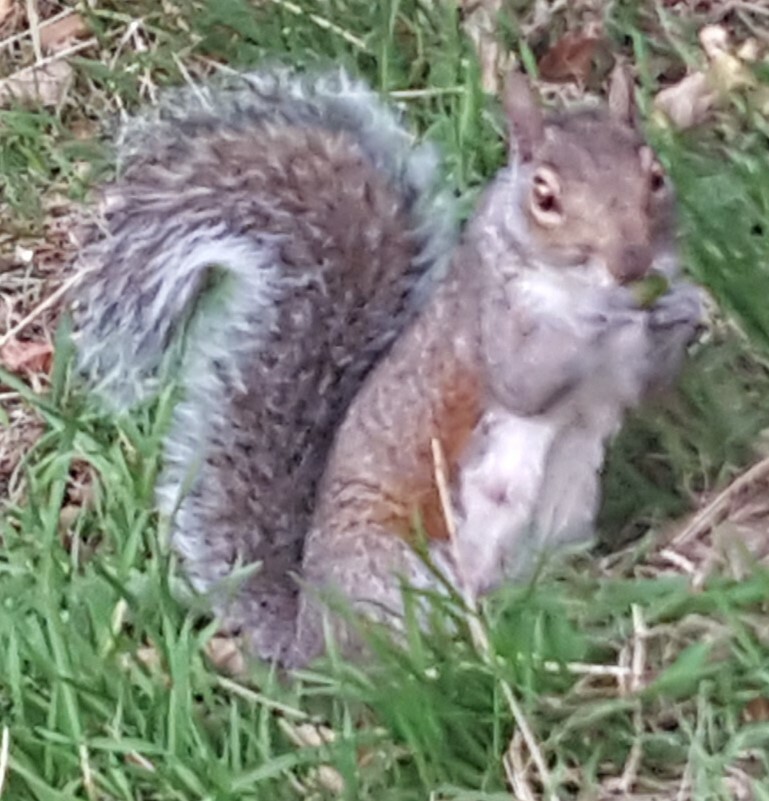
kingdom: Animalia
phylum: Chordata
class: Mammalia
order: Rodentia
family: Sciuridae
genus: Sciurus
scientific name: Sciurus carolinensis
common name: Eastern gray squirrel
